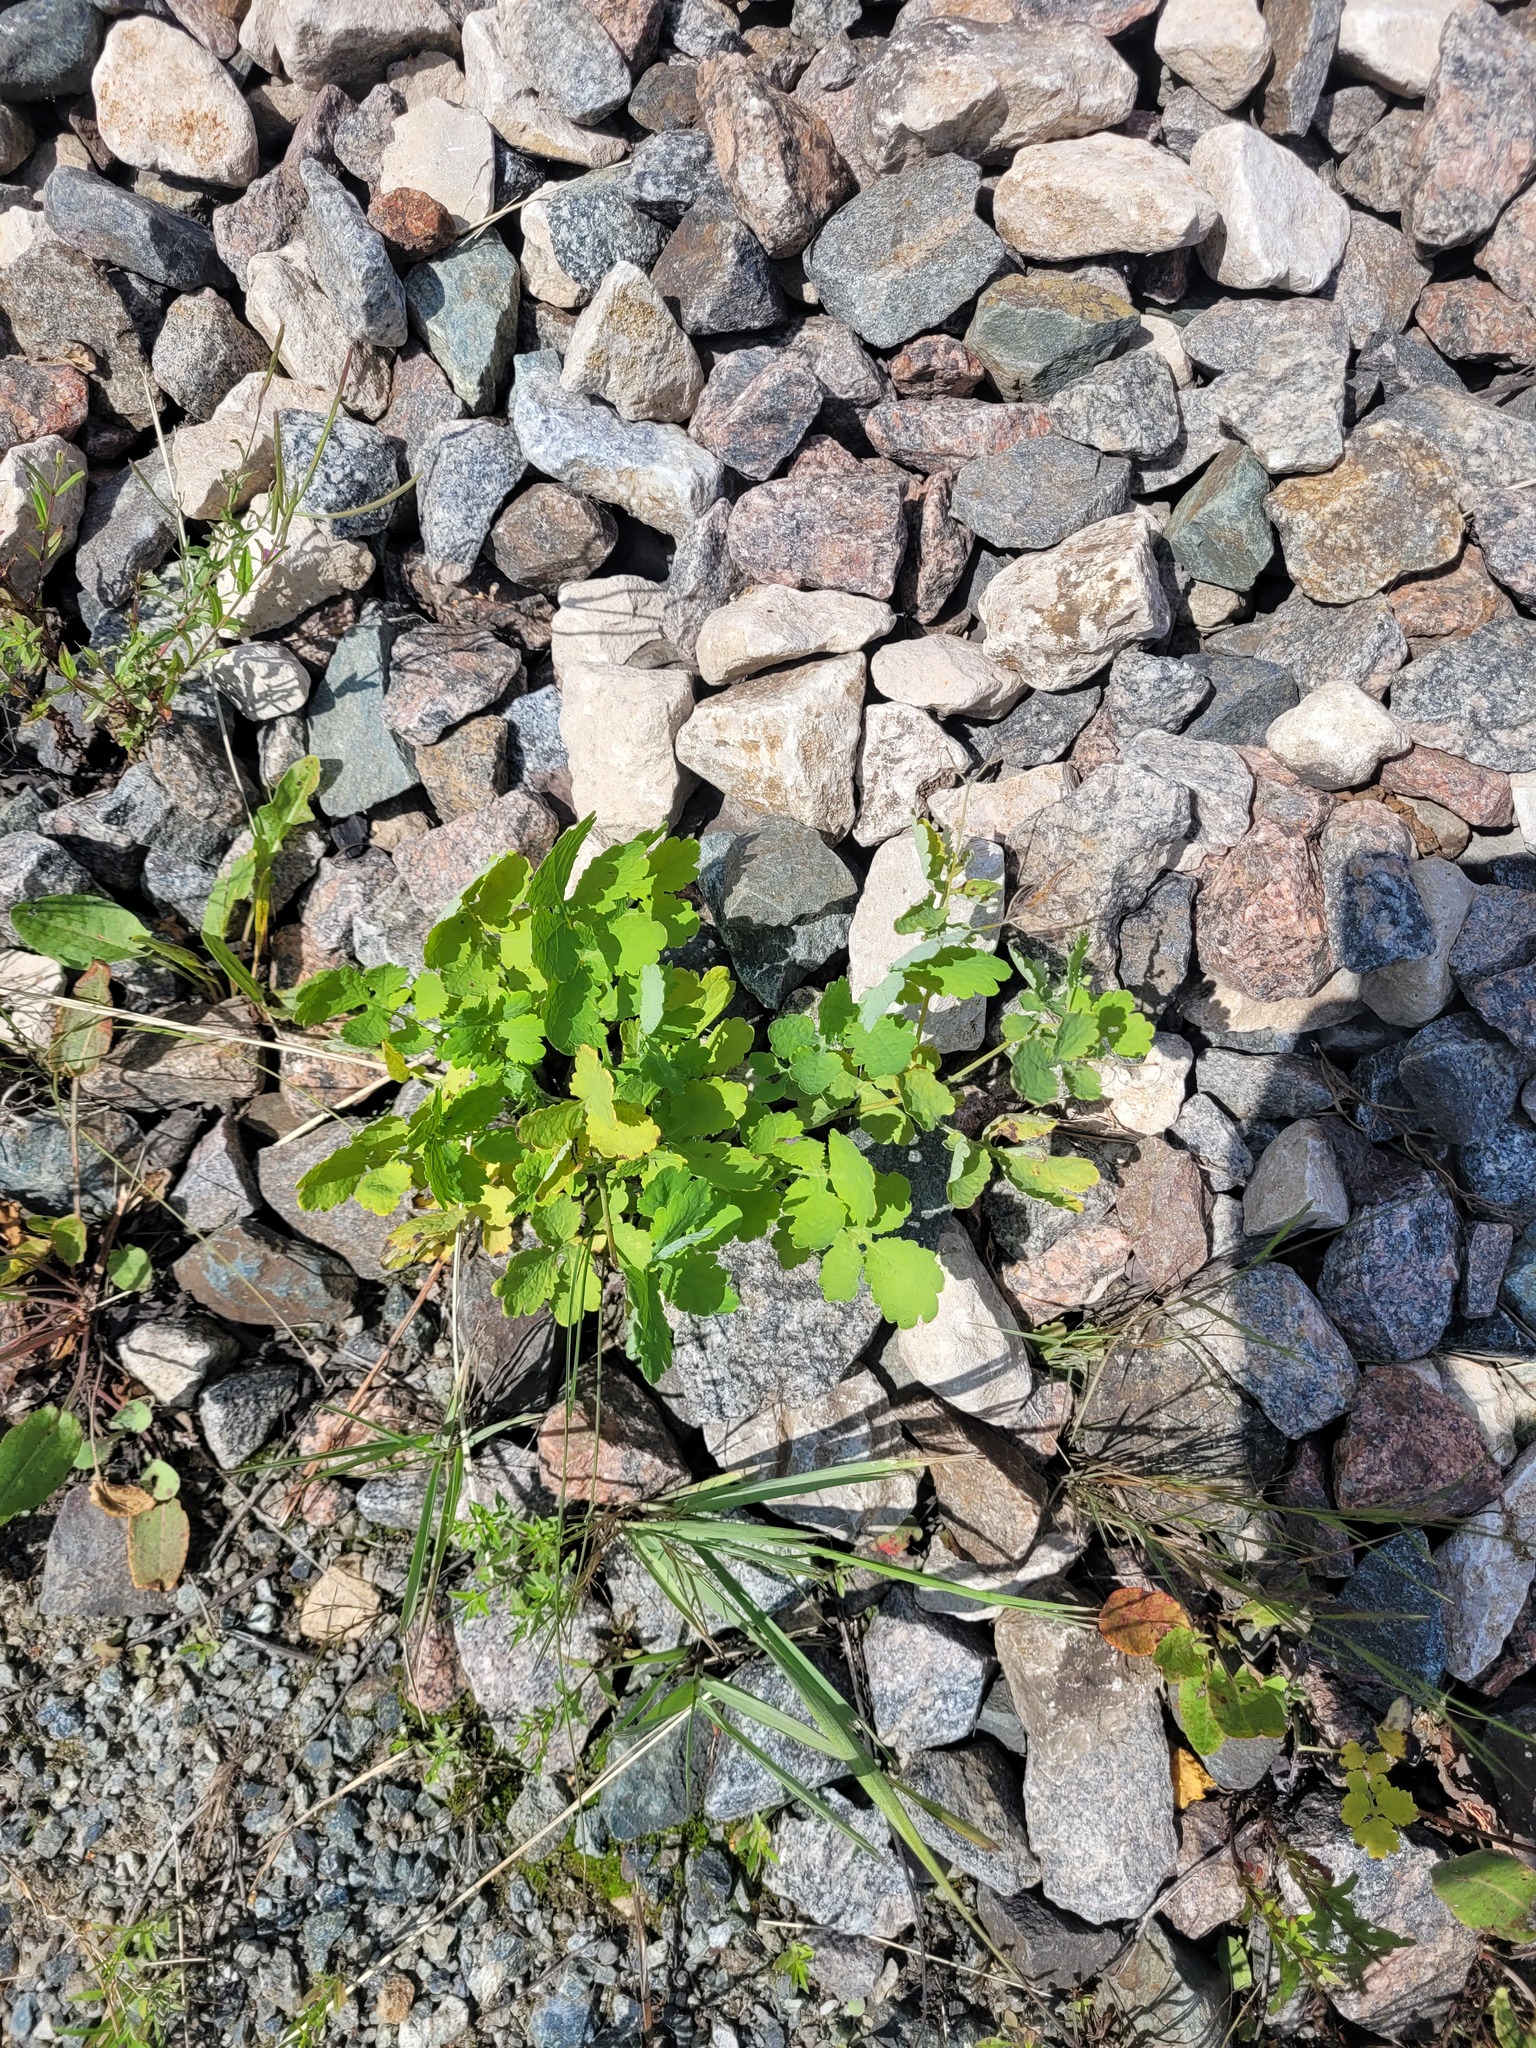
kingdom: Plantae
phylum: Tracheophyta
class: Magnoliopsida
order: Ranunculales
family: Papaveraceae
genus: Chelidonium
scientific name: Chelidonium majus
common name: Greater celandine
